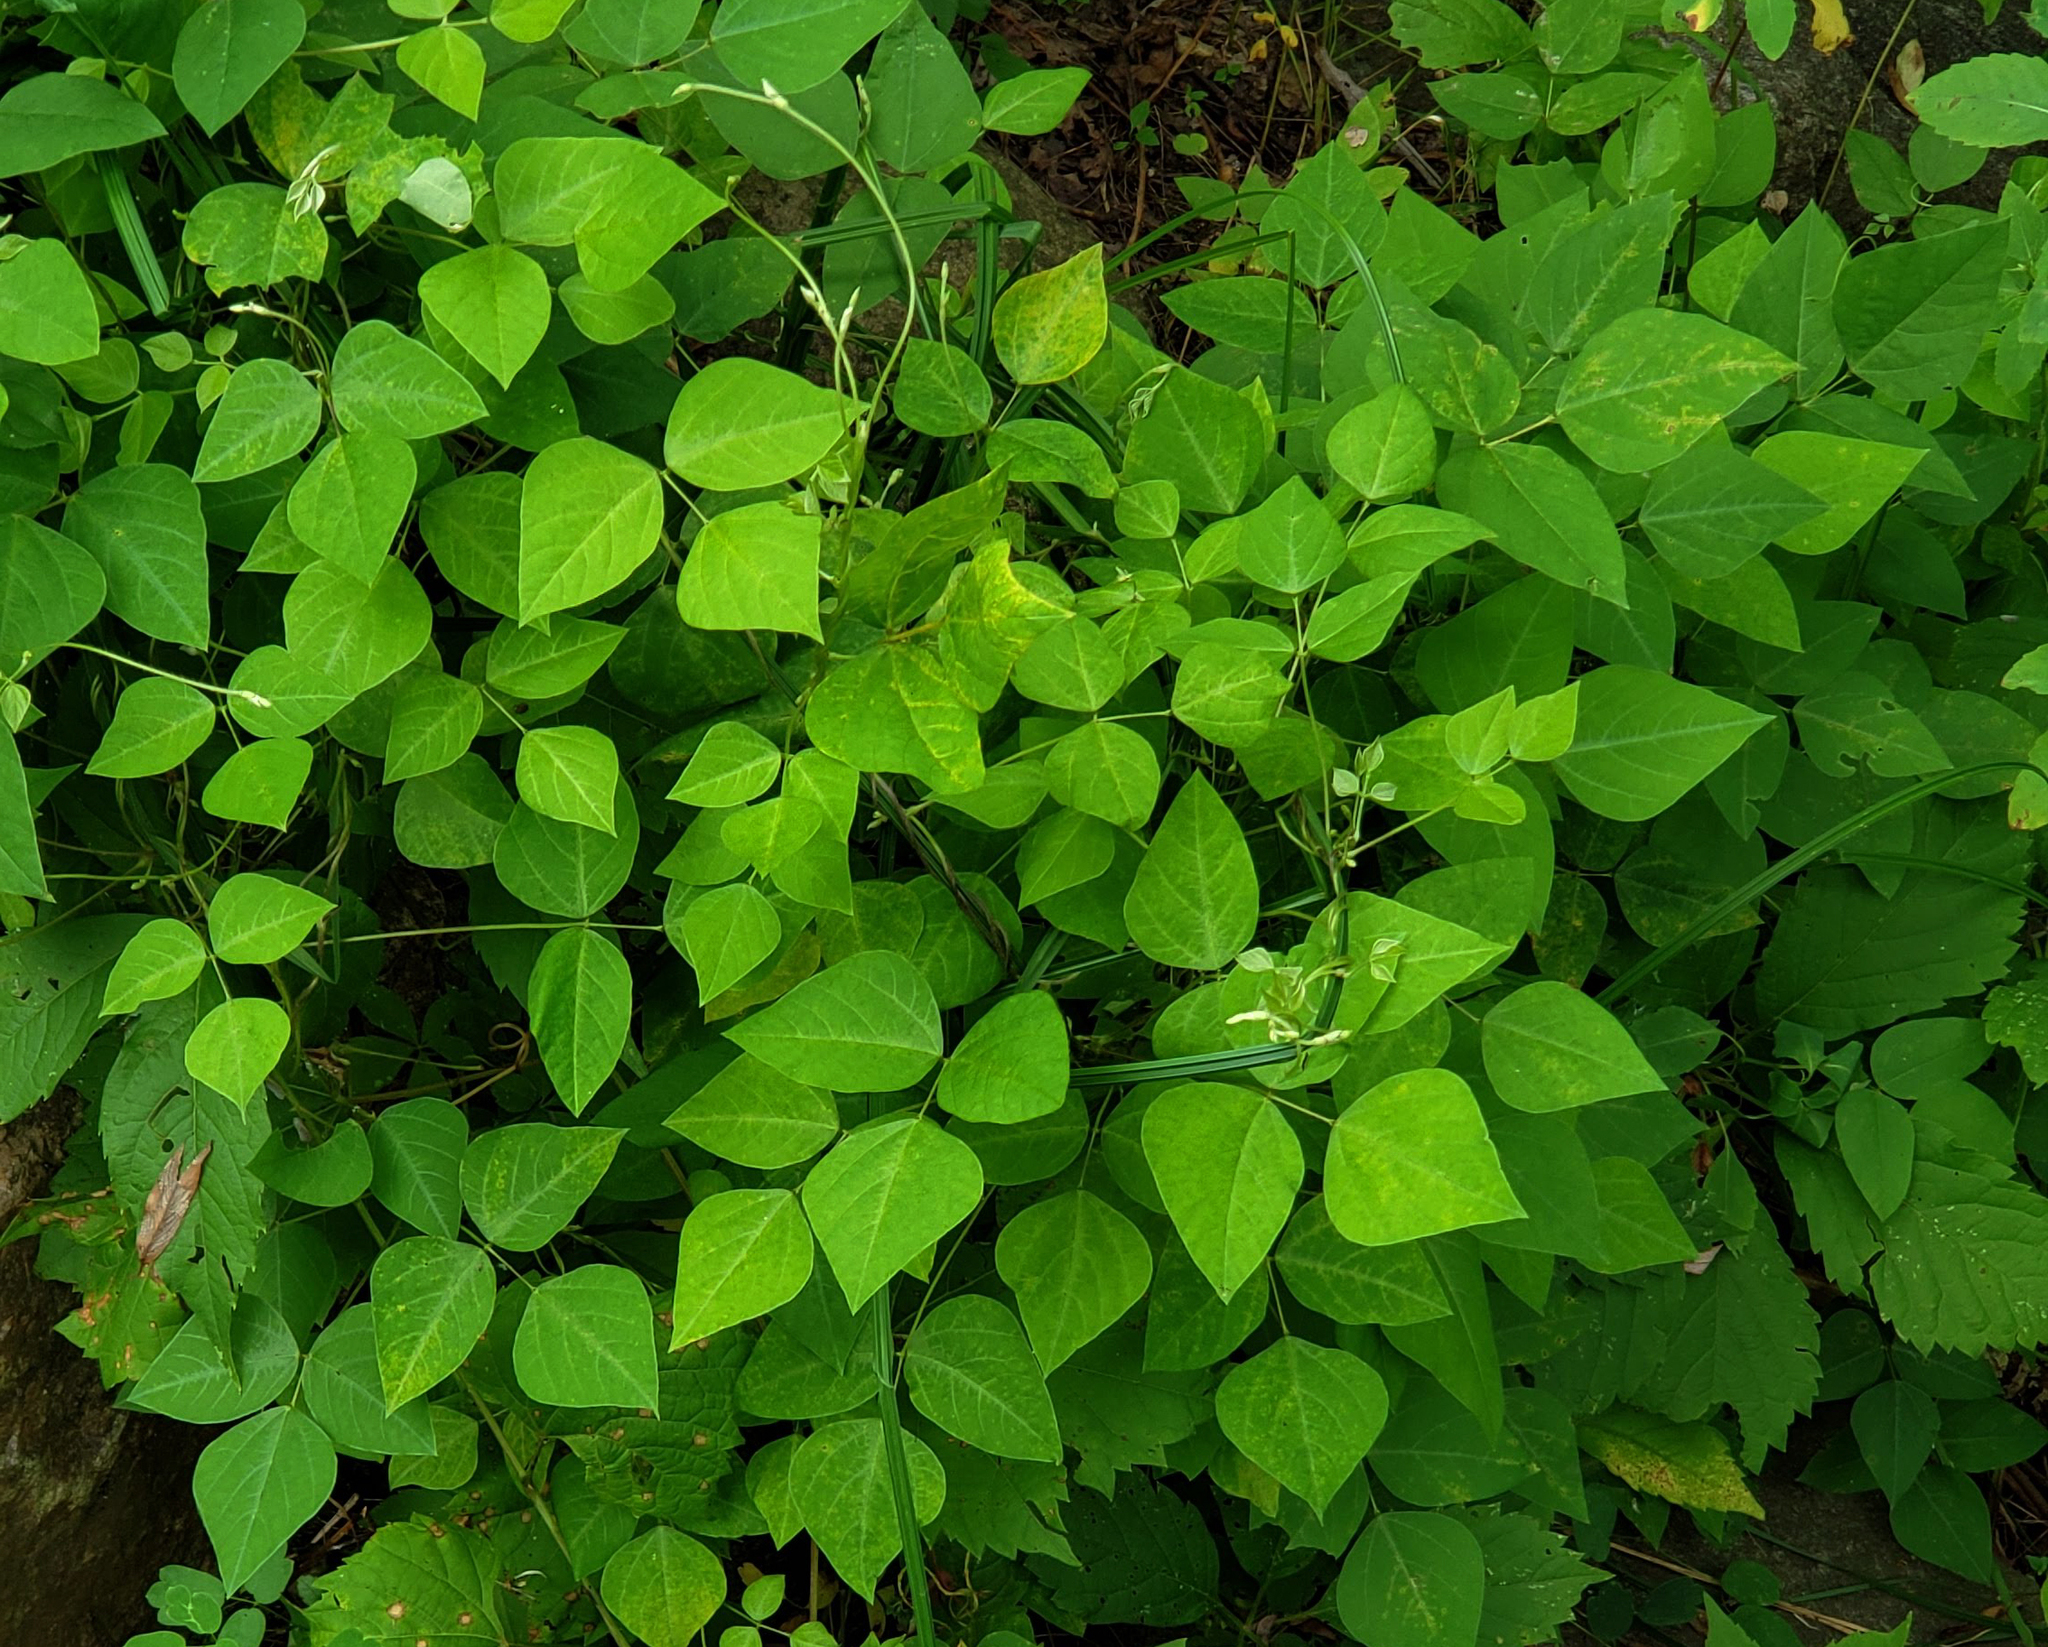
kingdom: Plantae
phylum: Tracheophyta
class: Magnoliopsida
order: Fabales
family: Fabaceae
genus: Amphicarpaea
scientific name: Amphicarpaea bracteata
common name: American hog peanut
